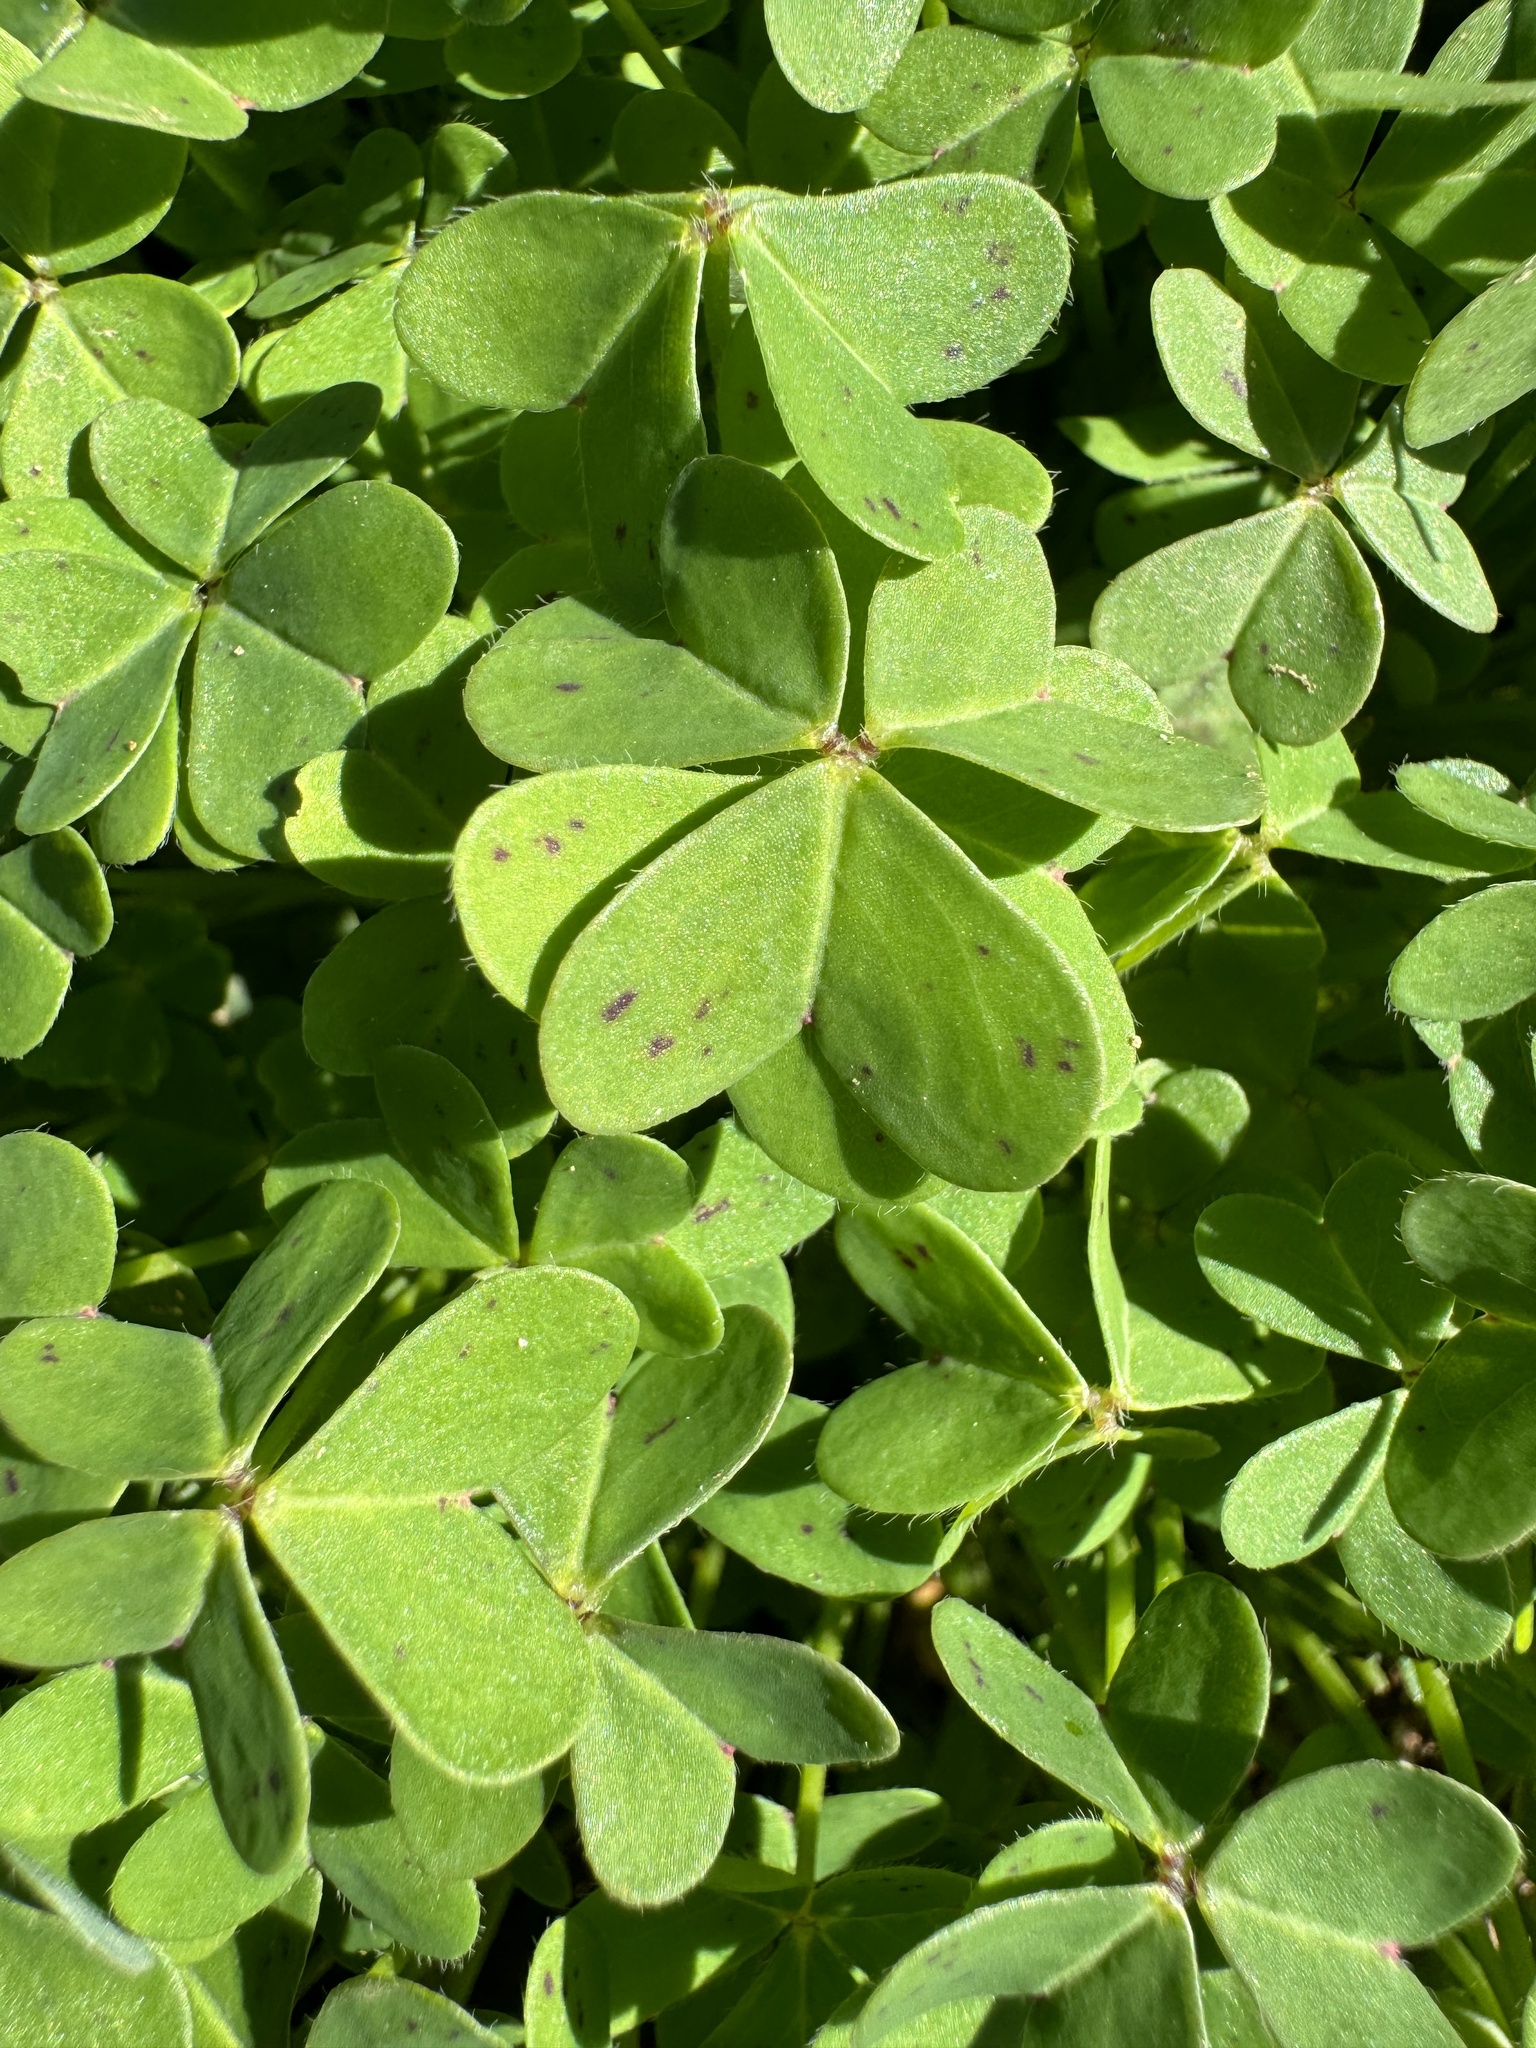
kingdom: Plantae
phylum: Tracheophyta
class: Magnoliopsida
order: Oxalidales
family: Oxalidaceae
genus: Oxalis
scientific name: Oxalis pes-caprae
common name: Bermuda-buttercup
